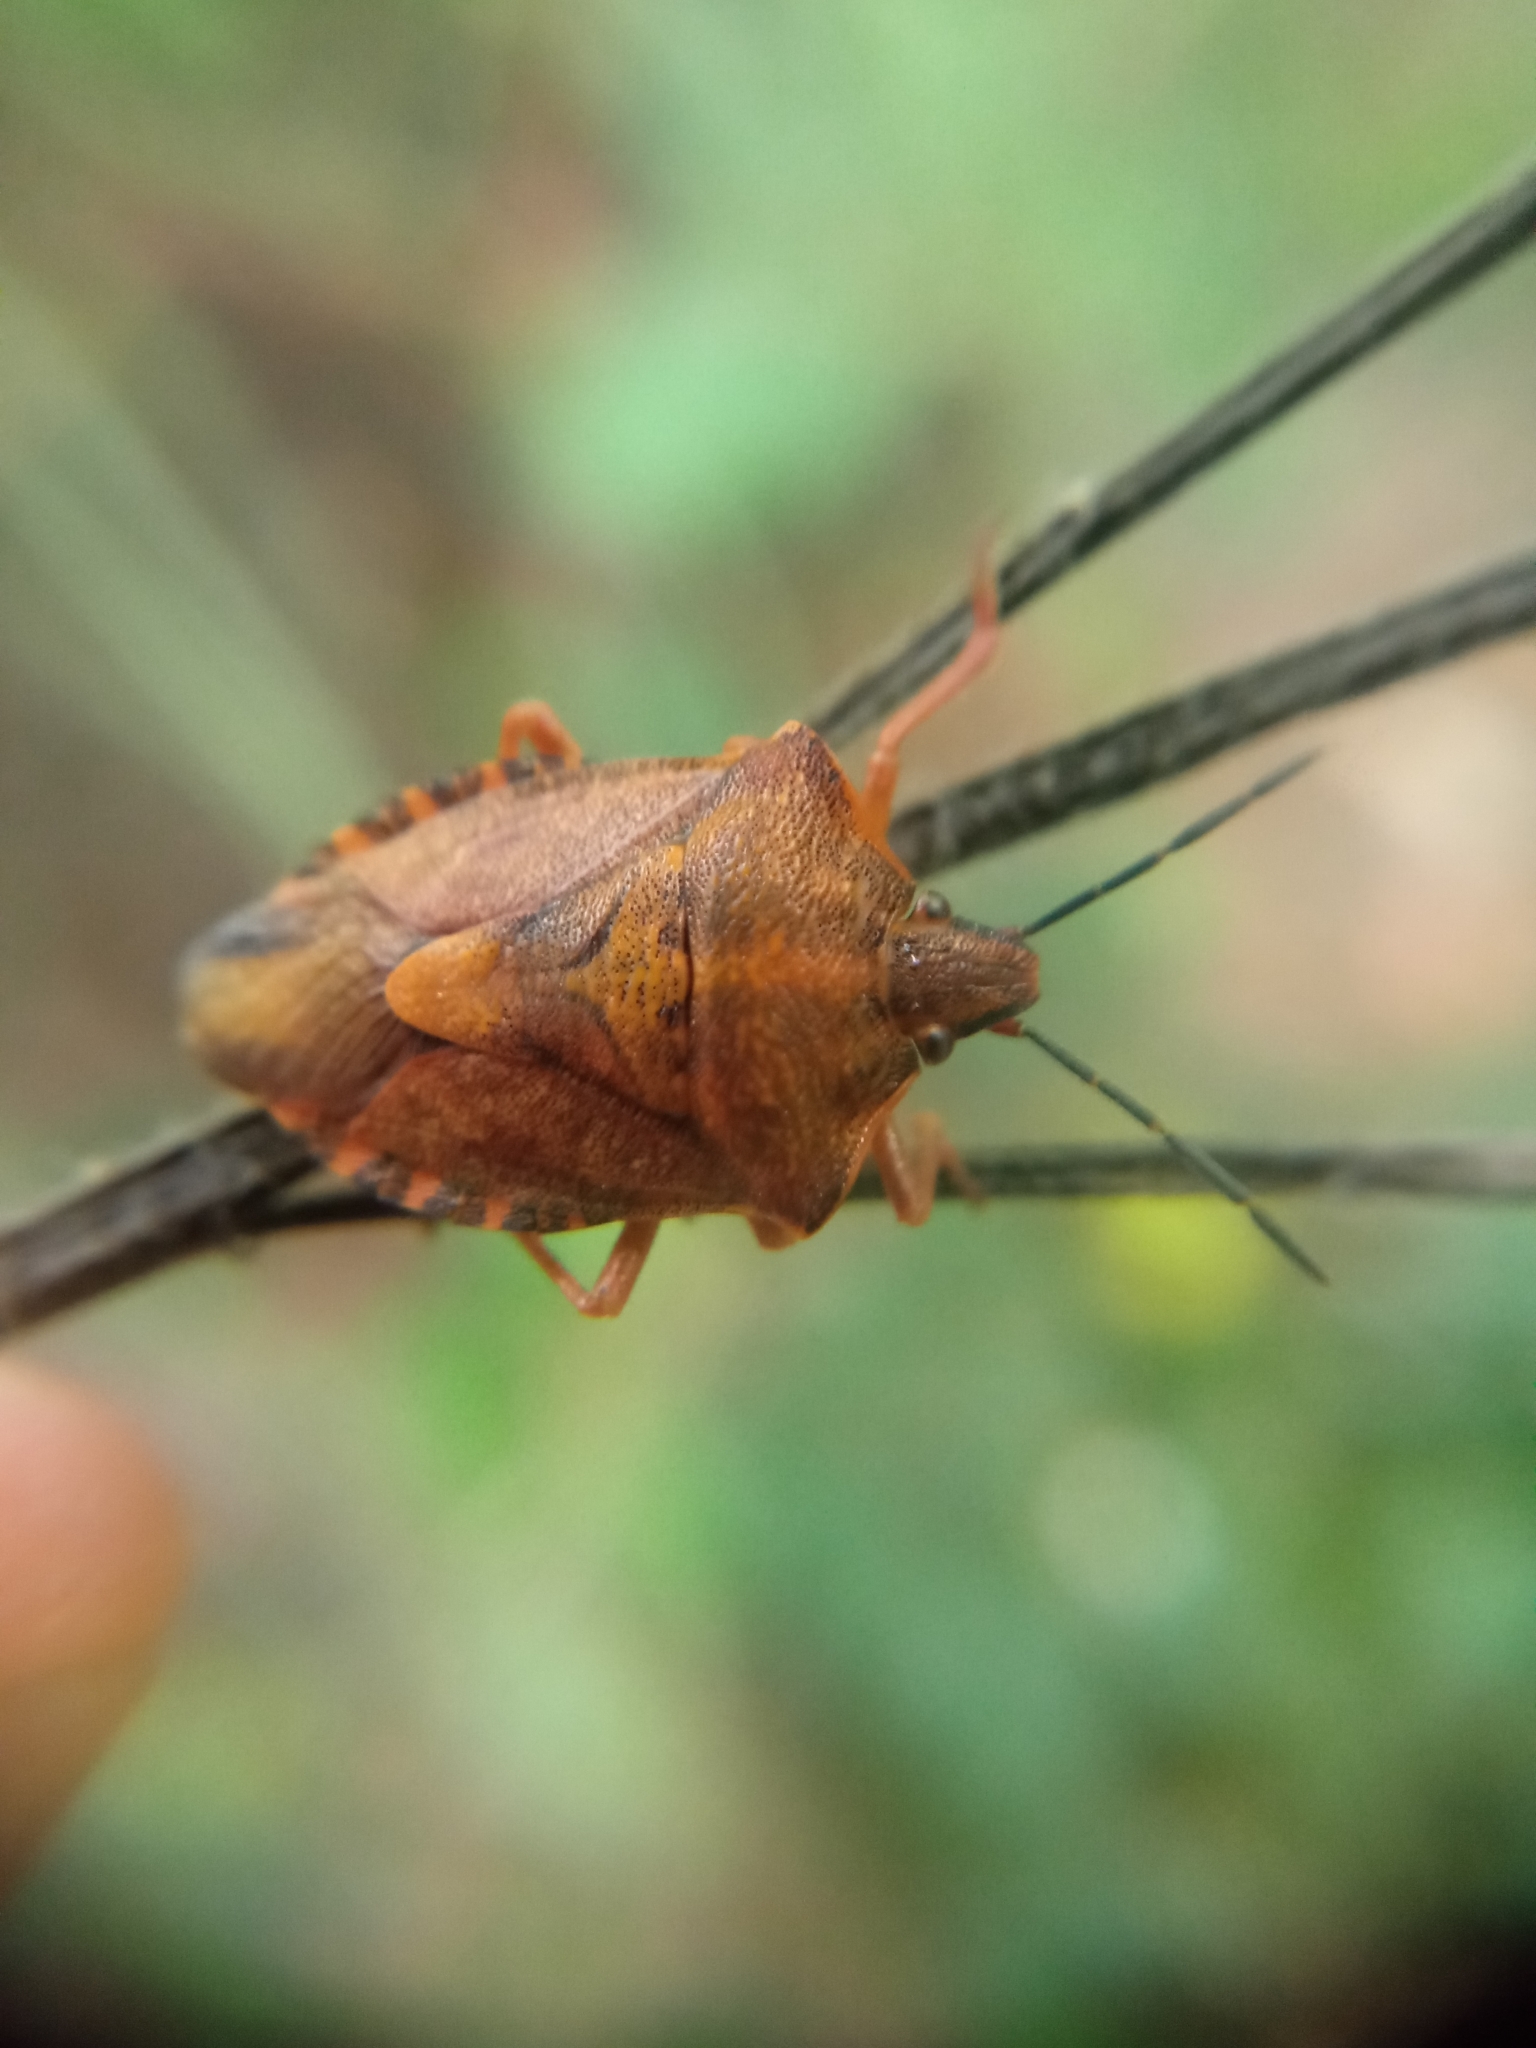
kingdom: Animalia
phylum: Arthropoda
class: Insecta
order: Hemiptera
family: Pentatomidae
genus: Carpocoris
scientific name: Carpocoris purpureipennis
